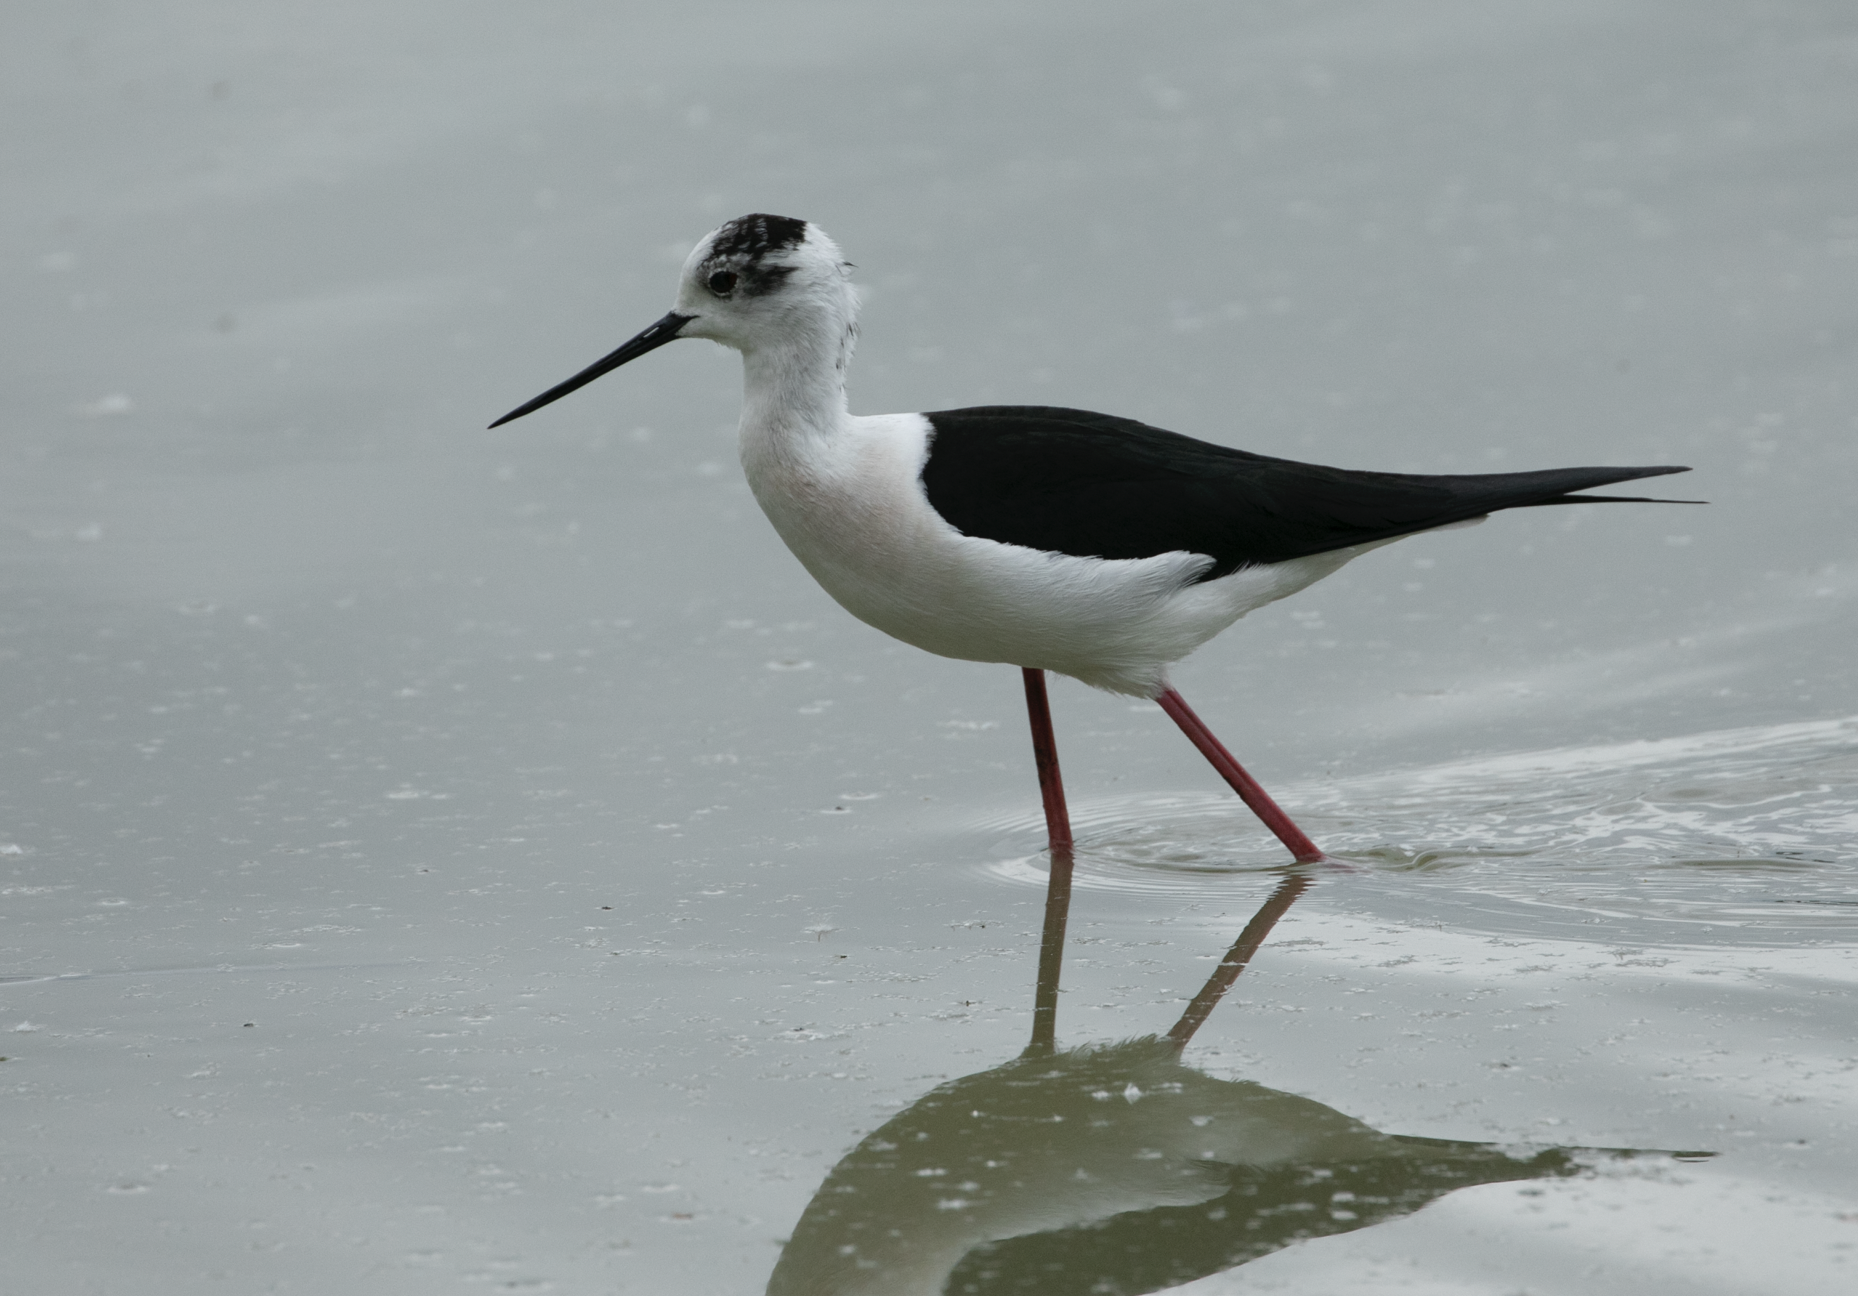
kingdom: Animalia
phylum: Chordata
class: Aves
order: Charadriiformes
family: Recurvirostridae
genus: Himantopus
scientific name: Himantopus himantopus
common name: Black-winged stilt
